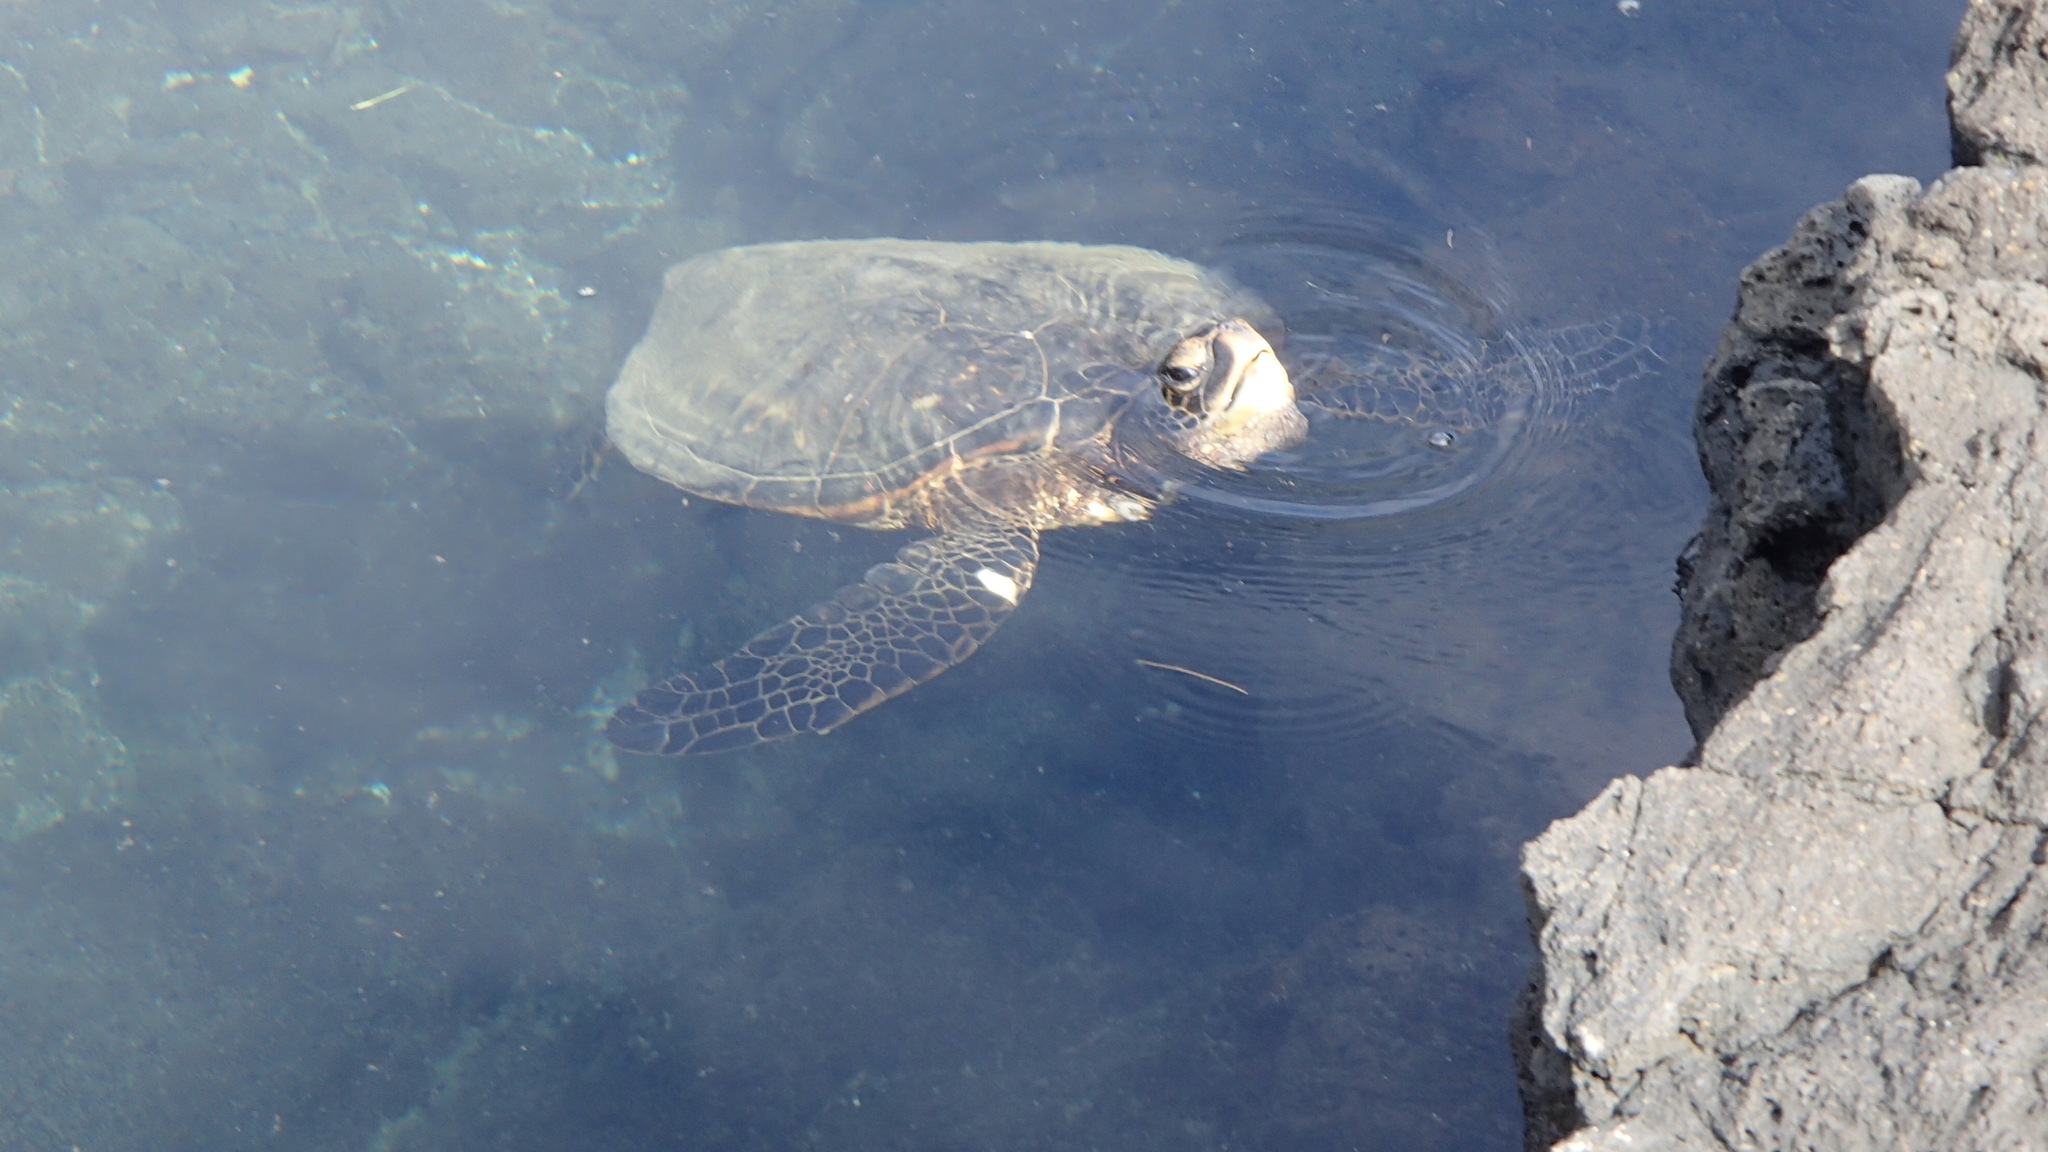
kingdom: Animalia
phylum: Chordata
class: Testudines
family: Cheloniidae
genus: Chelonia
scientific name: Chelonia mydas
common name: Green turtle
